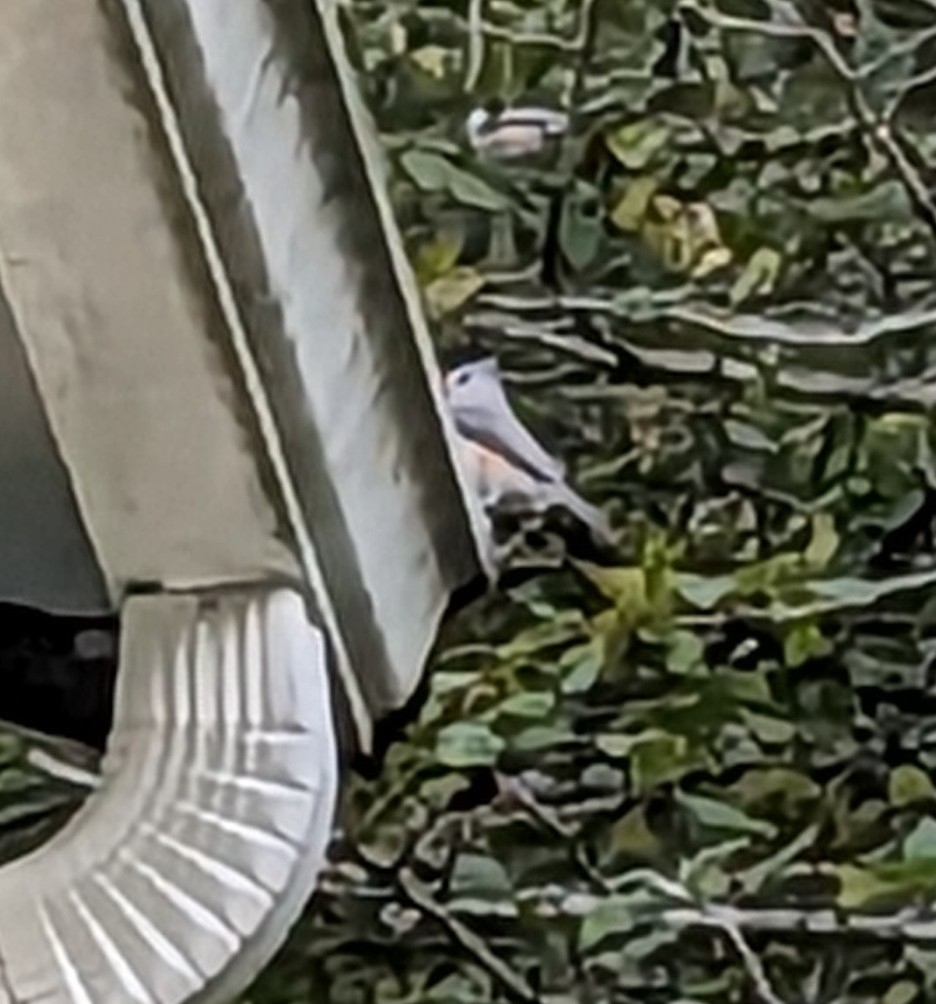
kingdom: Animalia
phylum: Chordata
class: Aves
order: Passeriformes
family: Paridae
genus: Baeolophus
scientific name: Baeolophus bicolor
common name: Tufted titmouse
